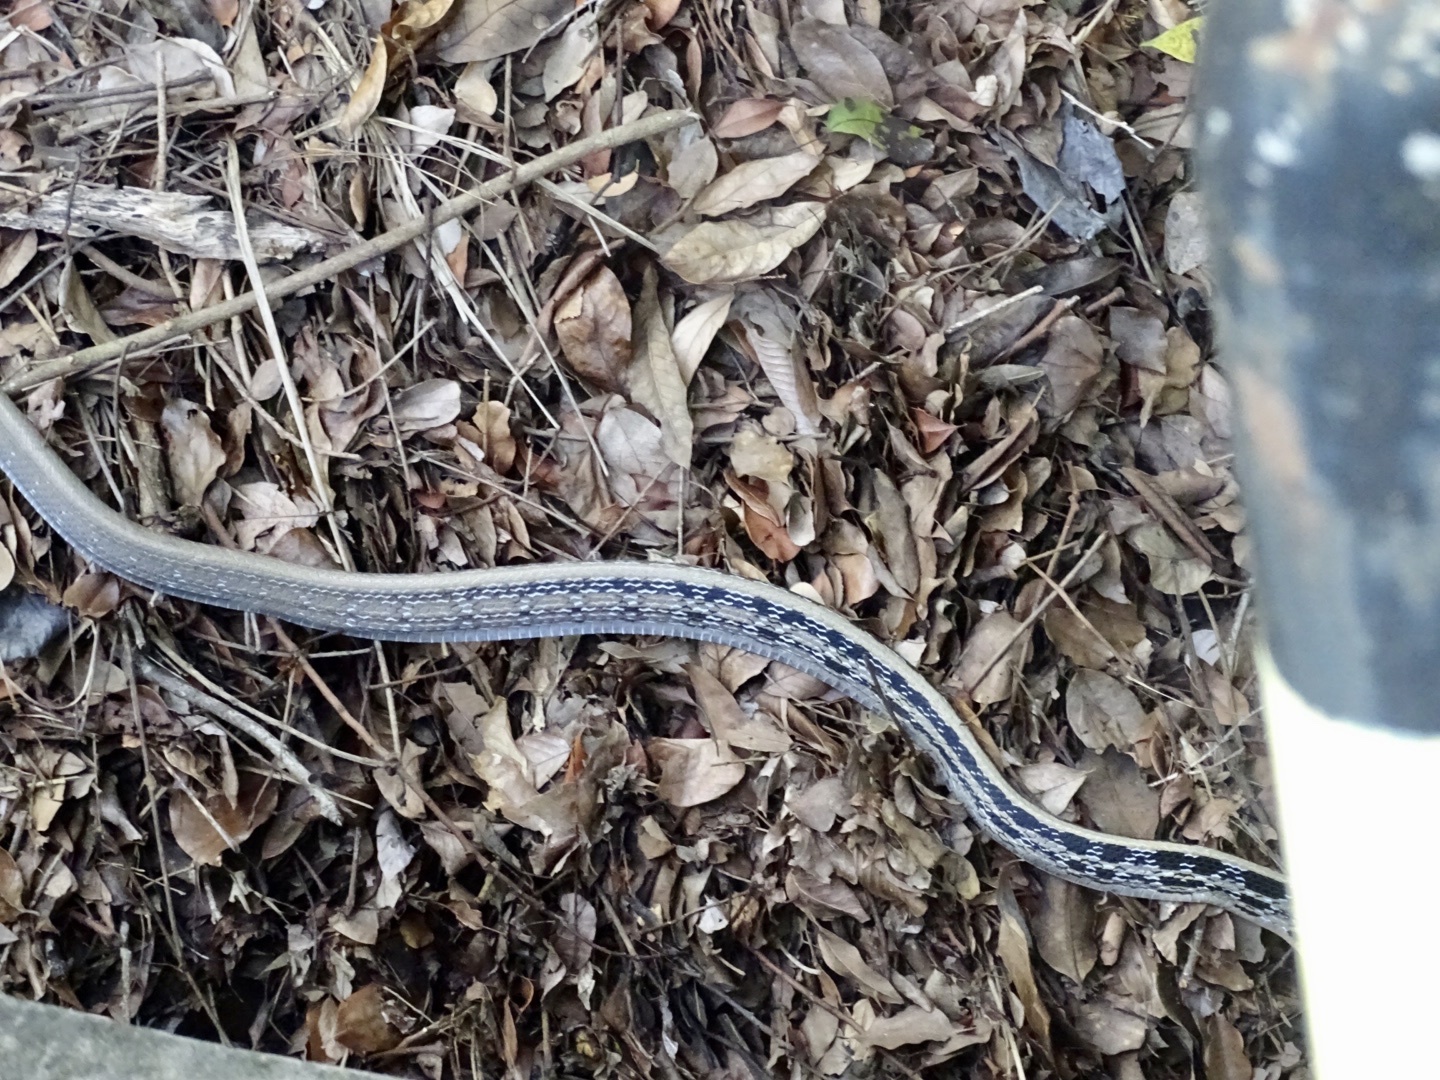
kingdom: Animalia
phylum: Chordata
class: Squamata
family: Colubridae
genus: Coelognathus
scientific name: Coelognathus radiatus
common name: Copperhead rat snake
